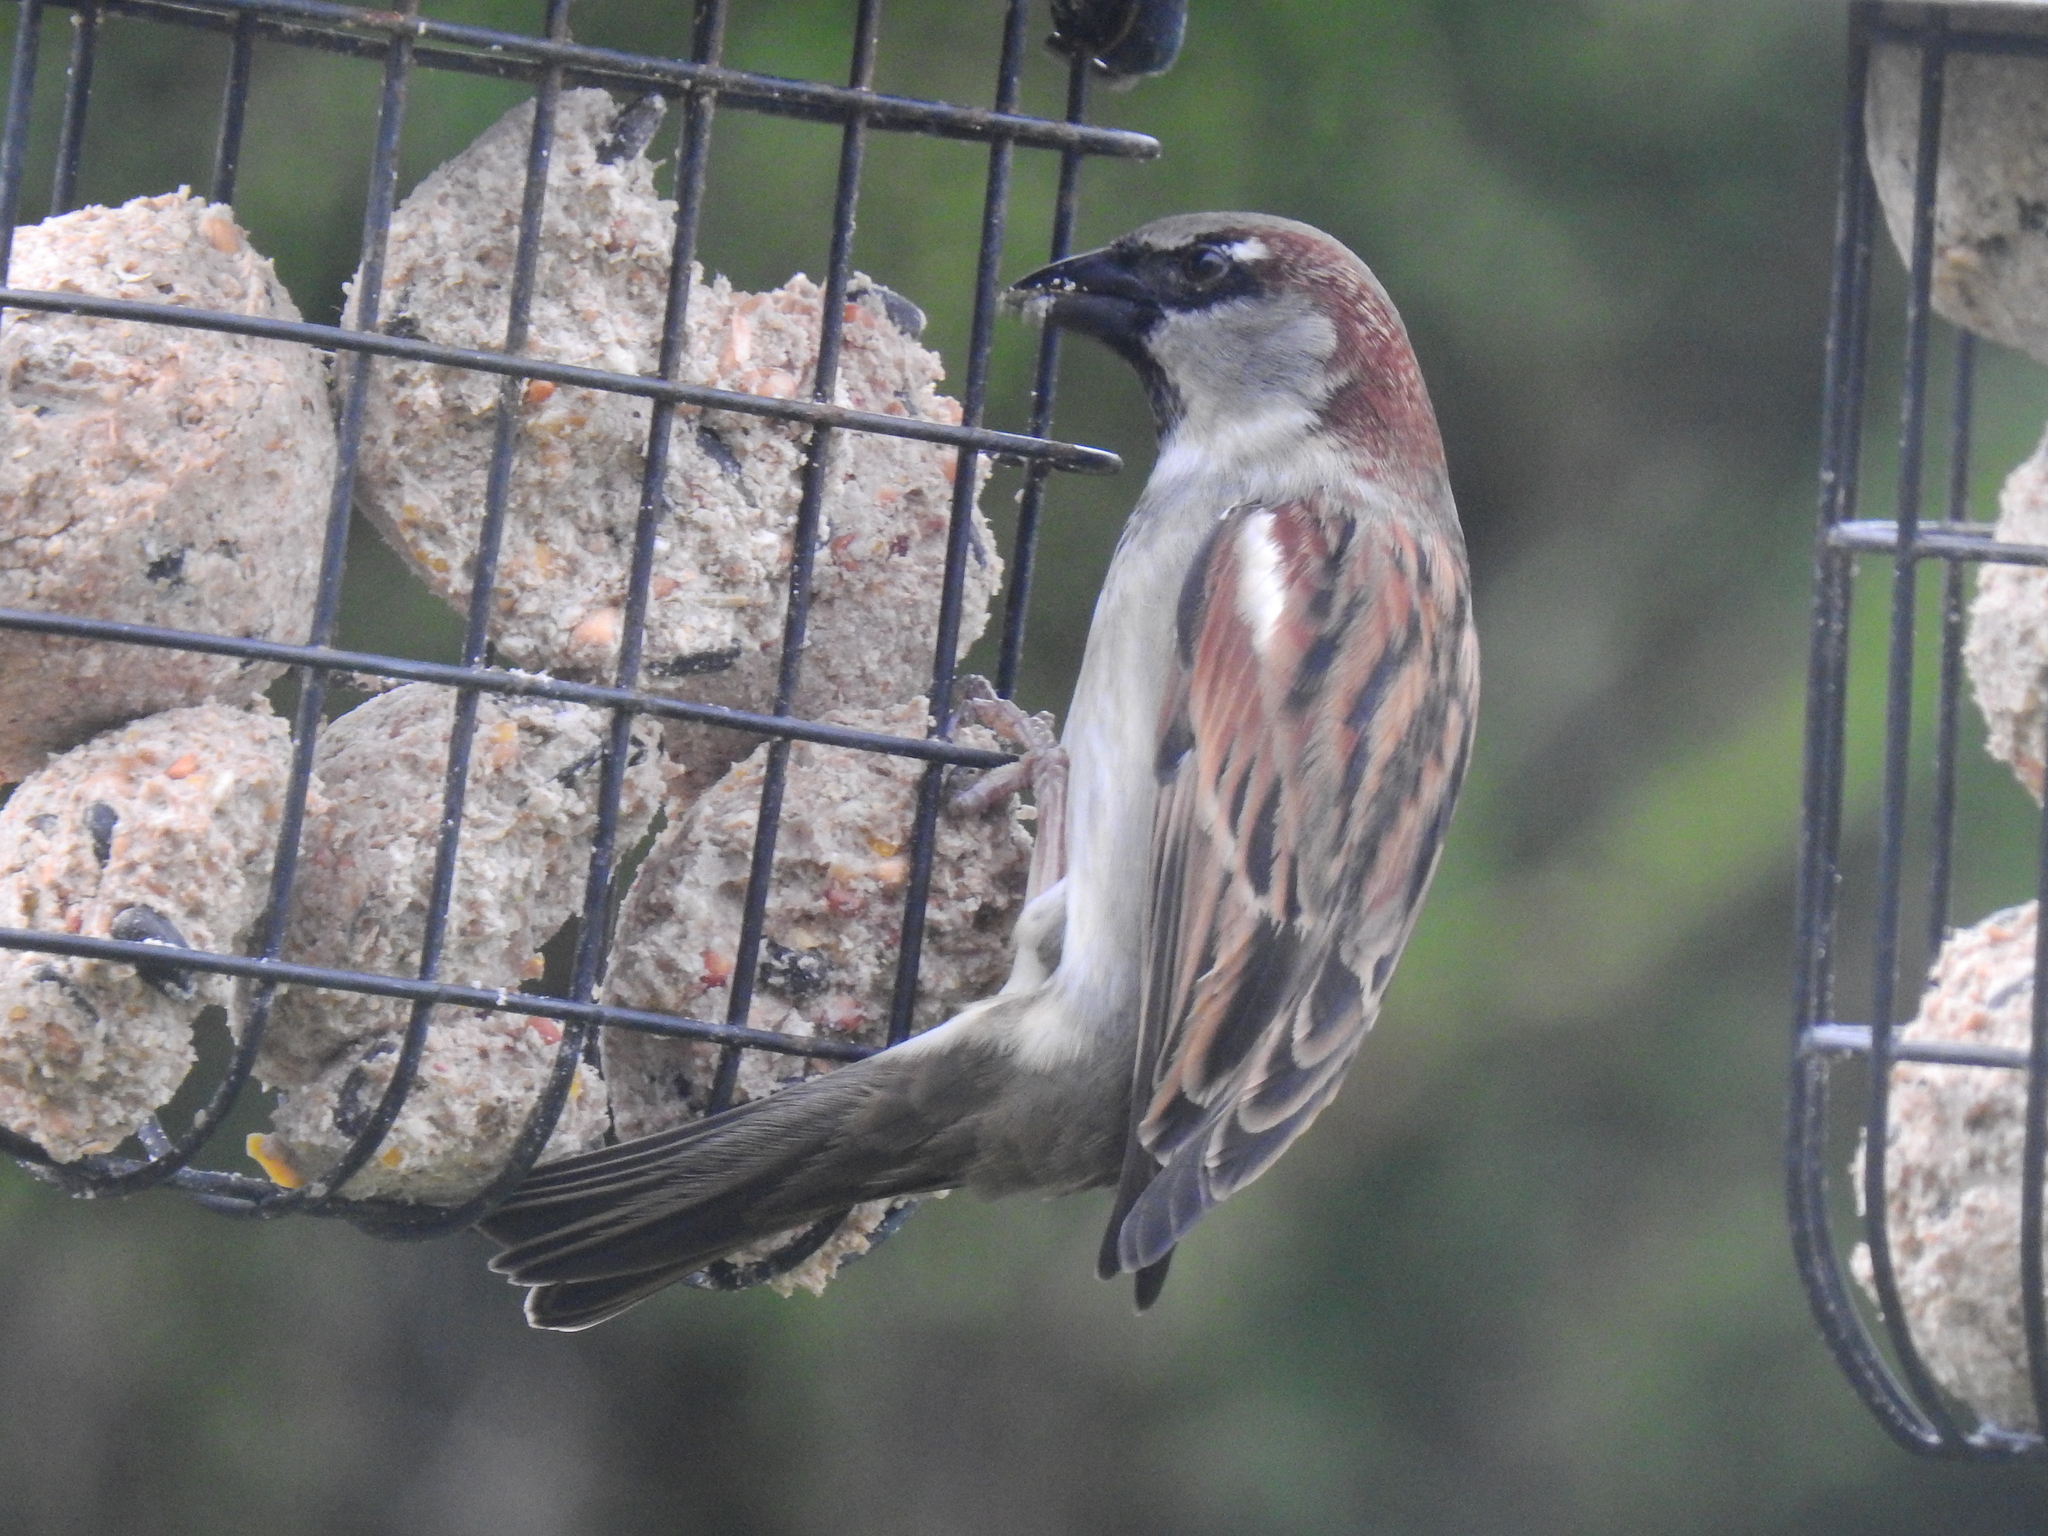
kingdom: Animalia
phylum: Chordata
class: Aves
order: Passeriformes
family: Passeridae
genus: Passer
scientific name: Passer domesticus
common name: House sparrow
